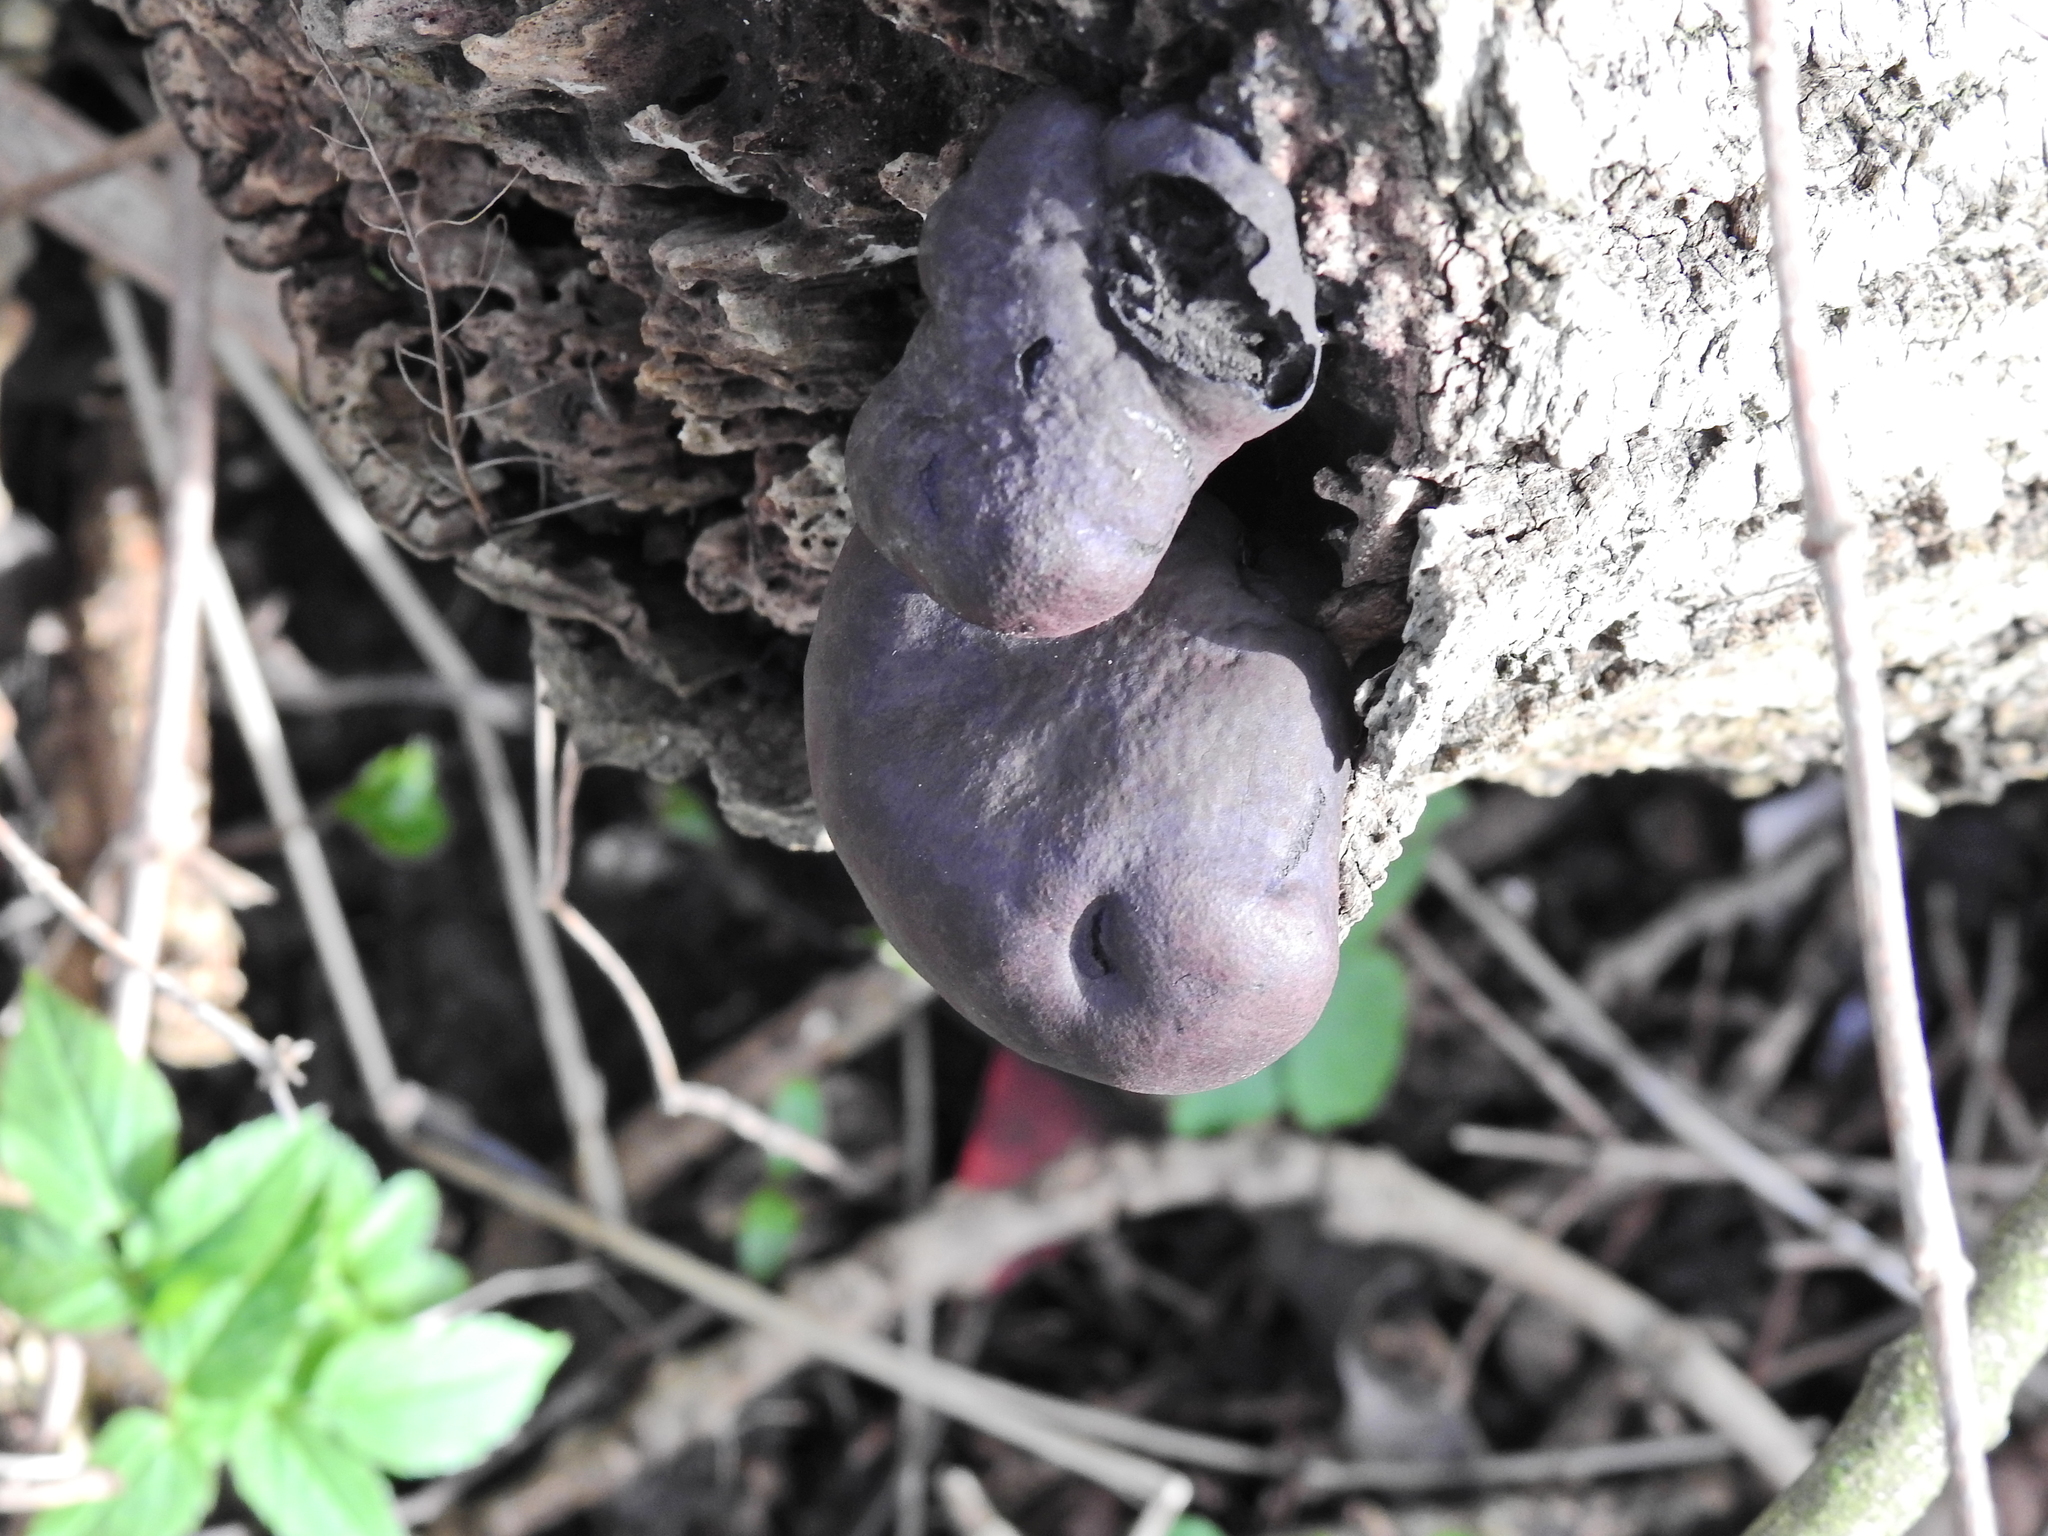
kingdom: Fungi
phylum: Ascomycota
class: Sordariomycetes
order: Xylariales
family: Hypoxylaceae
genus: Daldinia
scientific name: Daldinia concentrica
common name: Cramp balls
